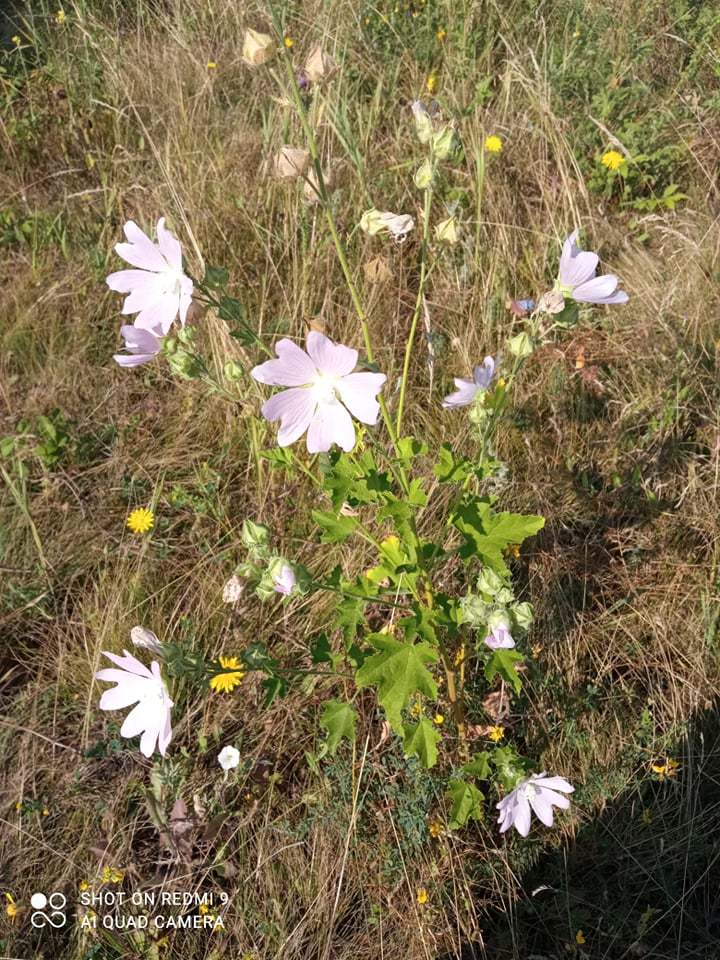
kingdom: Plantae
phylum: Tracheophyta
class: Magnoliopsida
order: Malvales
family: Malvaceae
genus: Malva
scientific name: Malva thuringiaca
